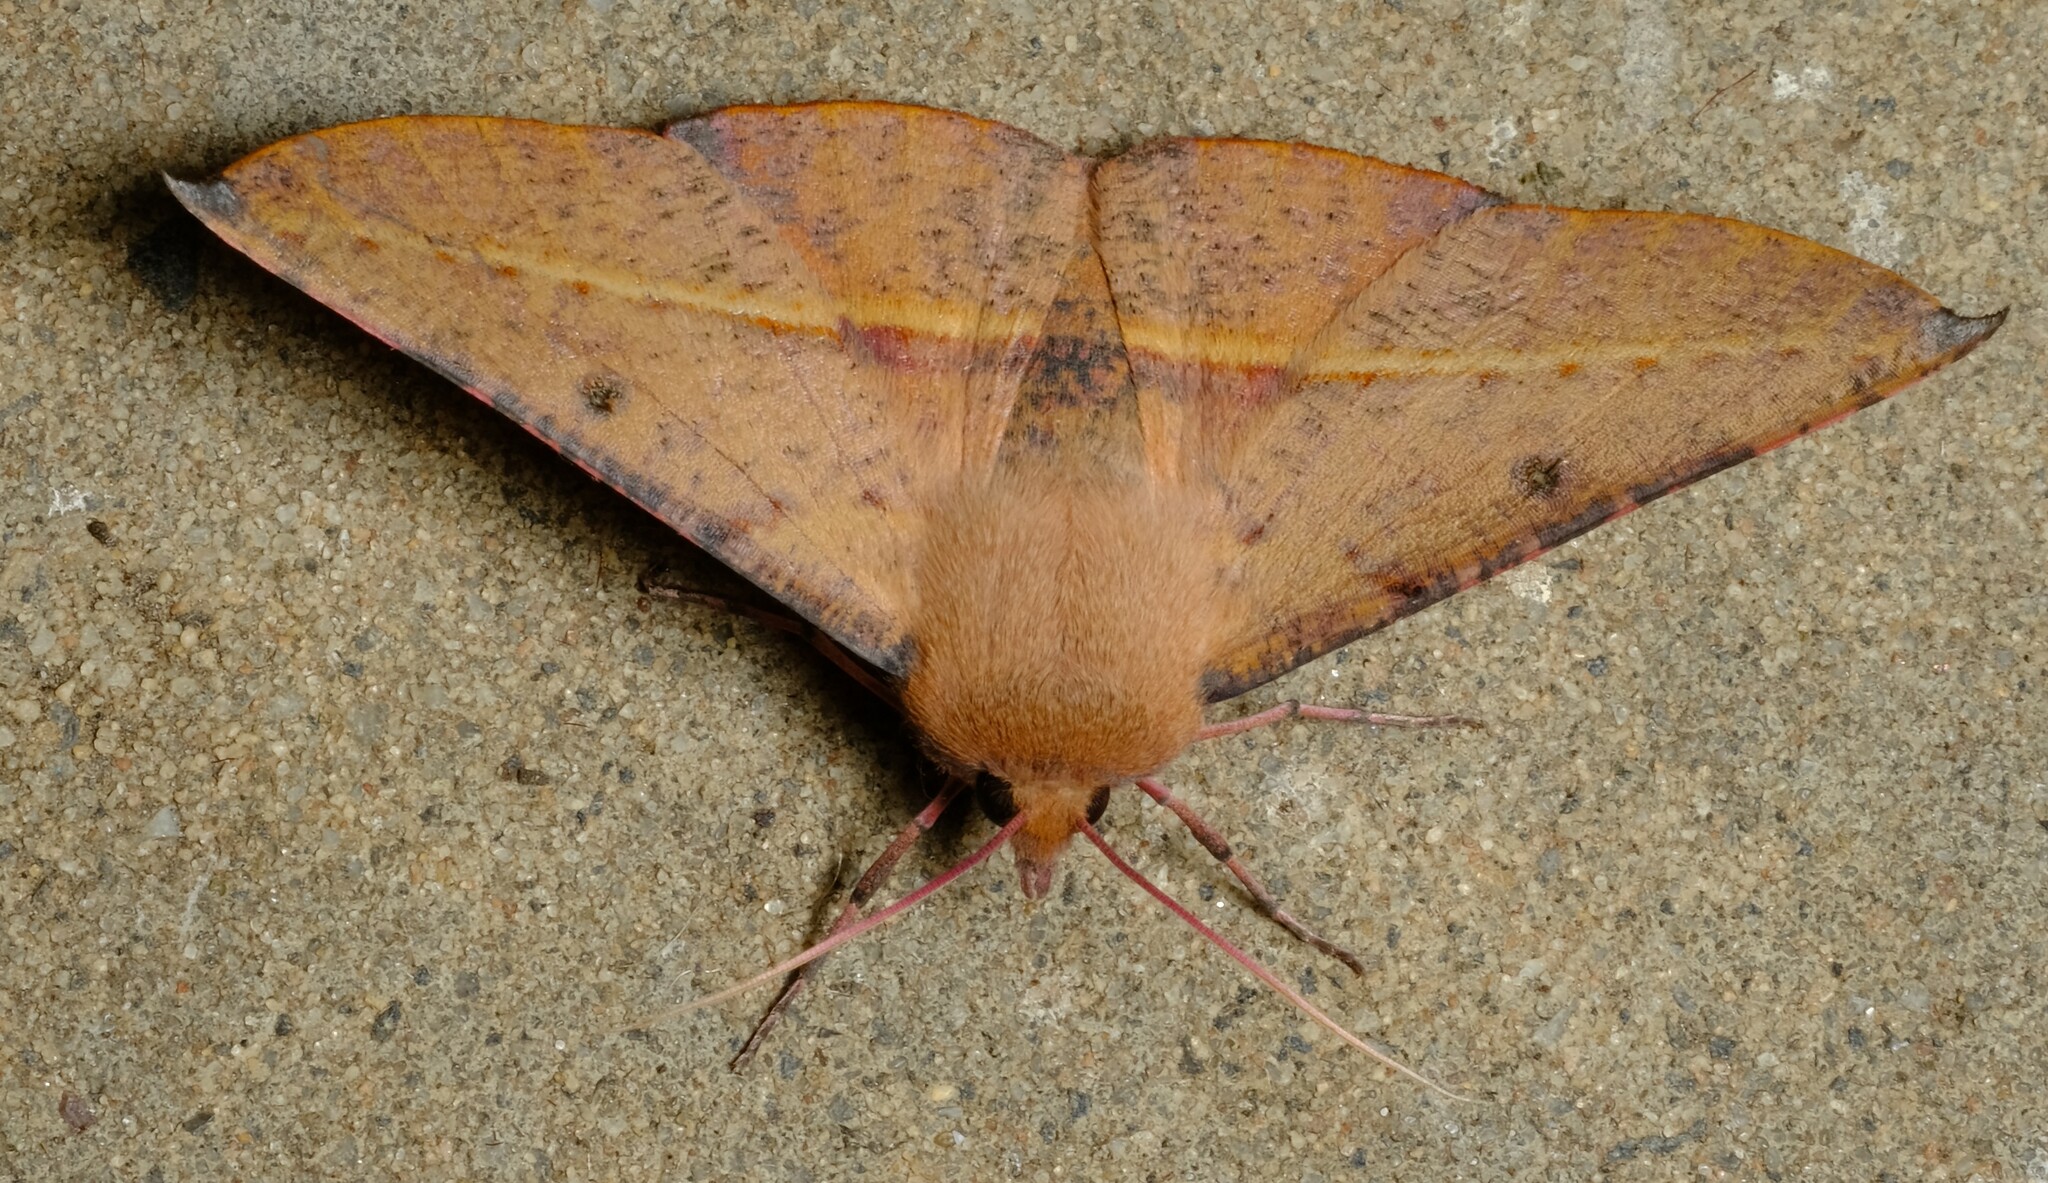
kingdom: Animalia
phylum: Arthropoda
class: Insecta
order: Lepidoptera
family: Geometridae
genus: Oenochroma
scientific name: Oenochroma vinaria
